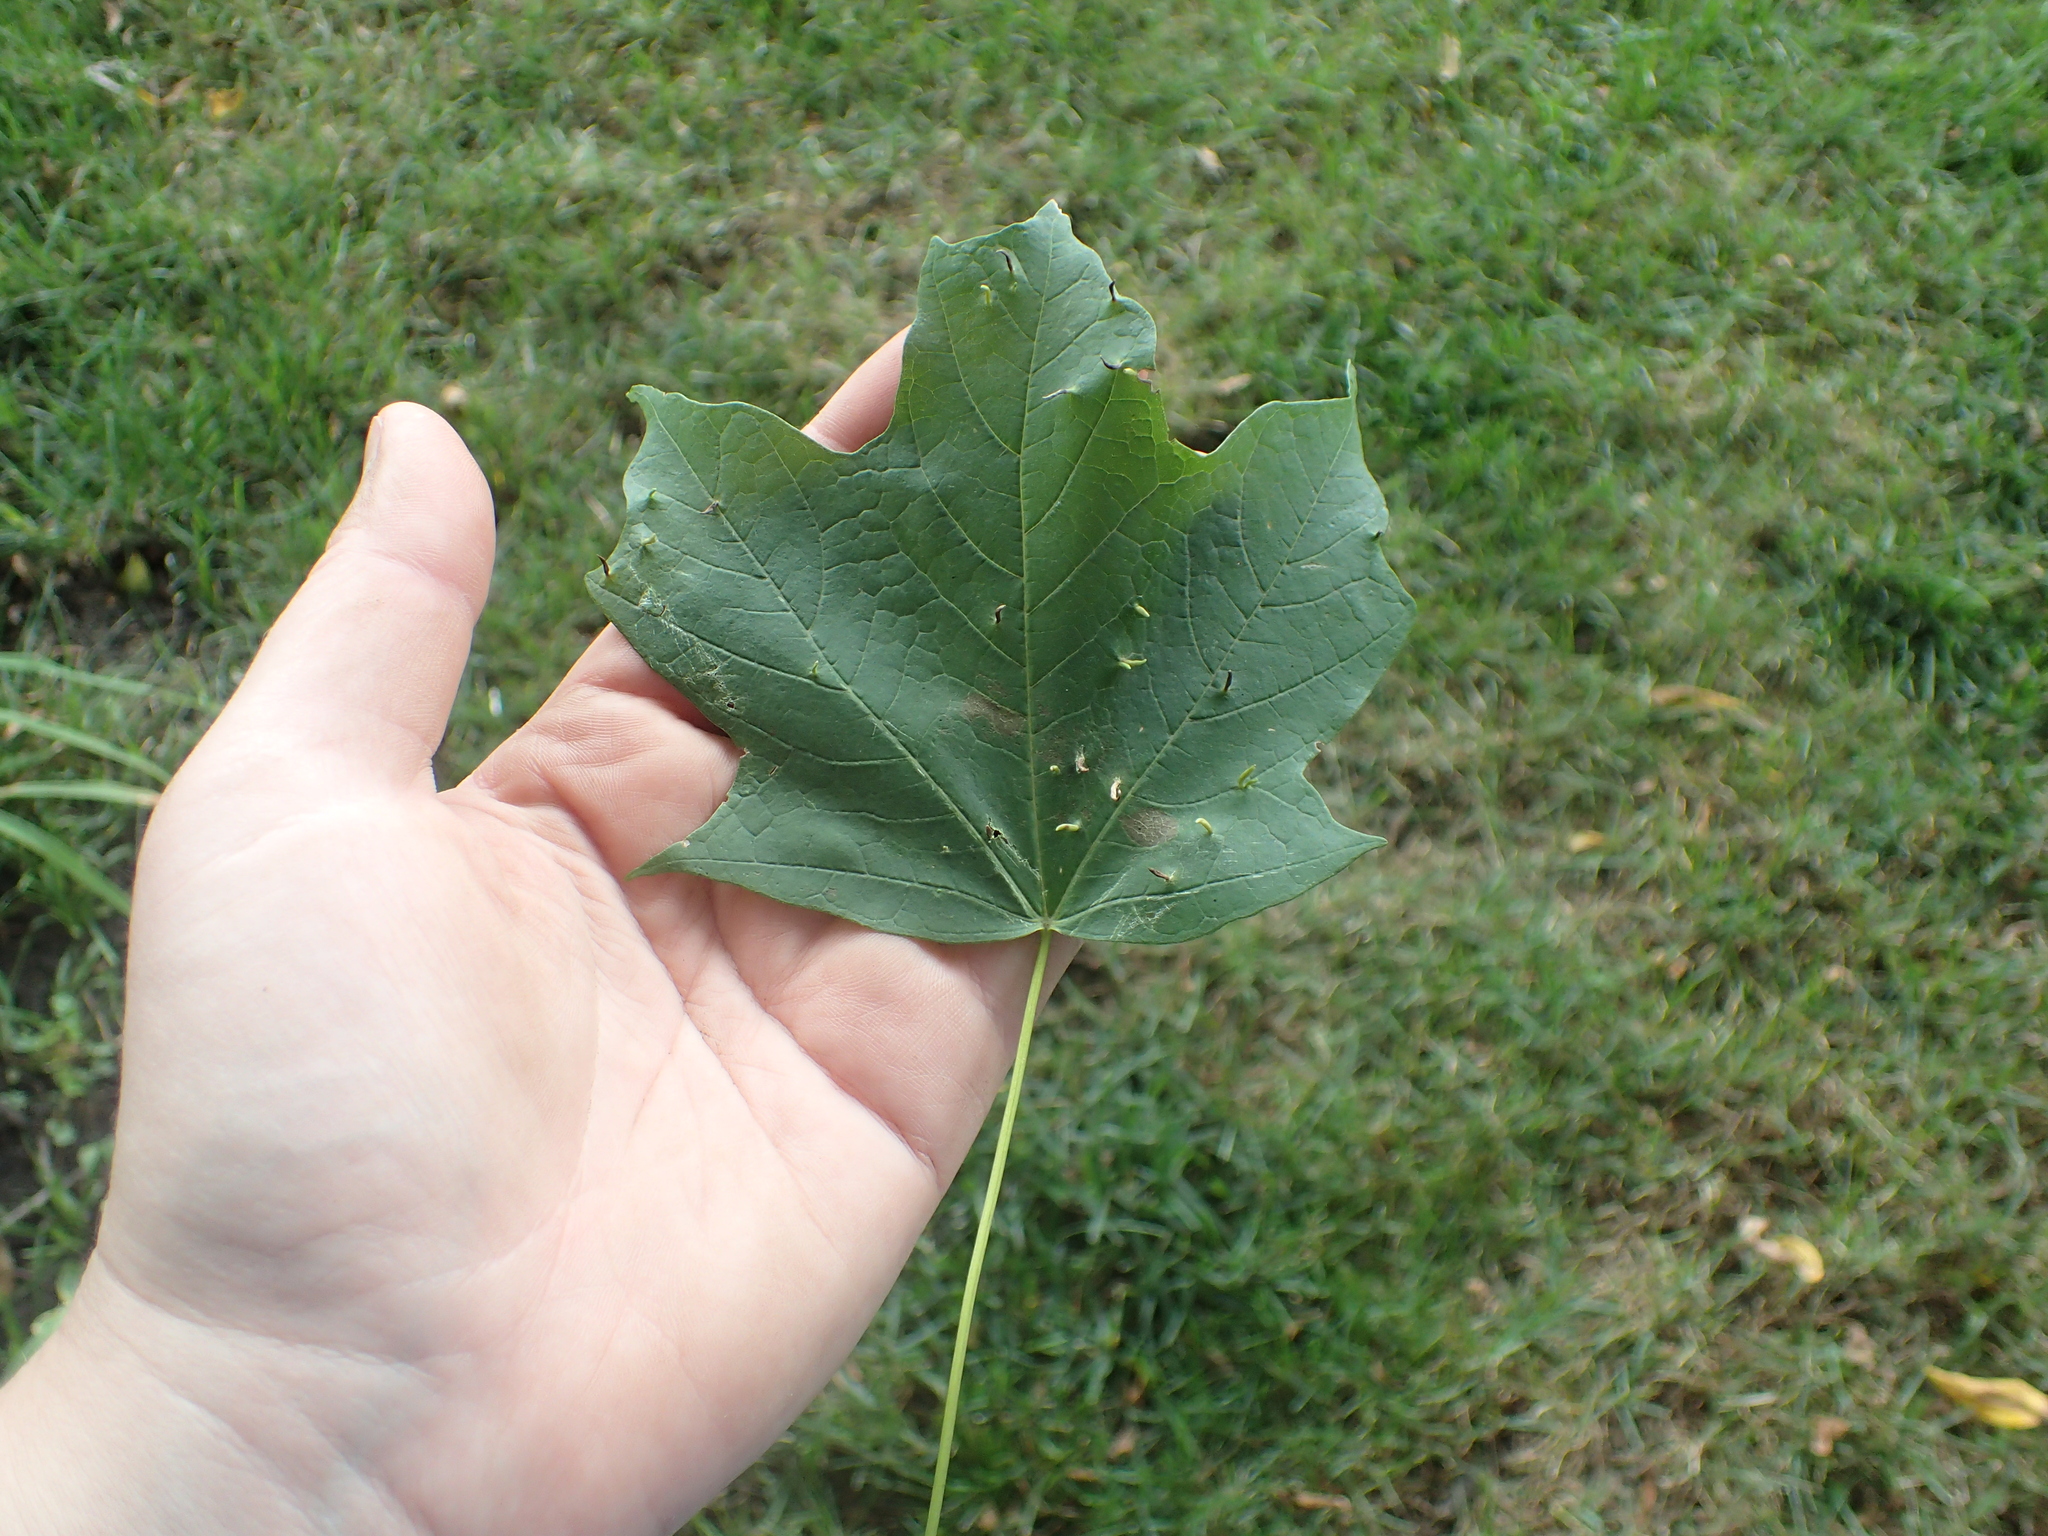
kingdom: Animalia
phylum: Arthropoda
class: Arachnida
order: Trombidiformes
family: Eriophyidae
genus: Vasates
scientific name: Vasates aceriscrumena
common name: Maple spindle gall mite
